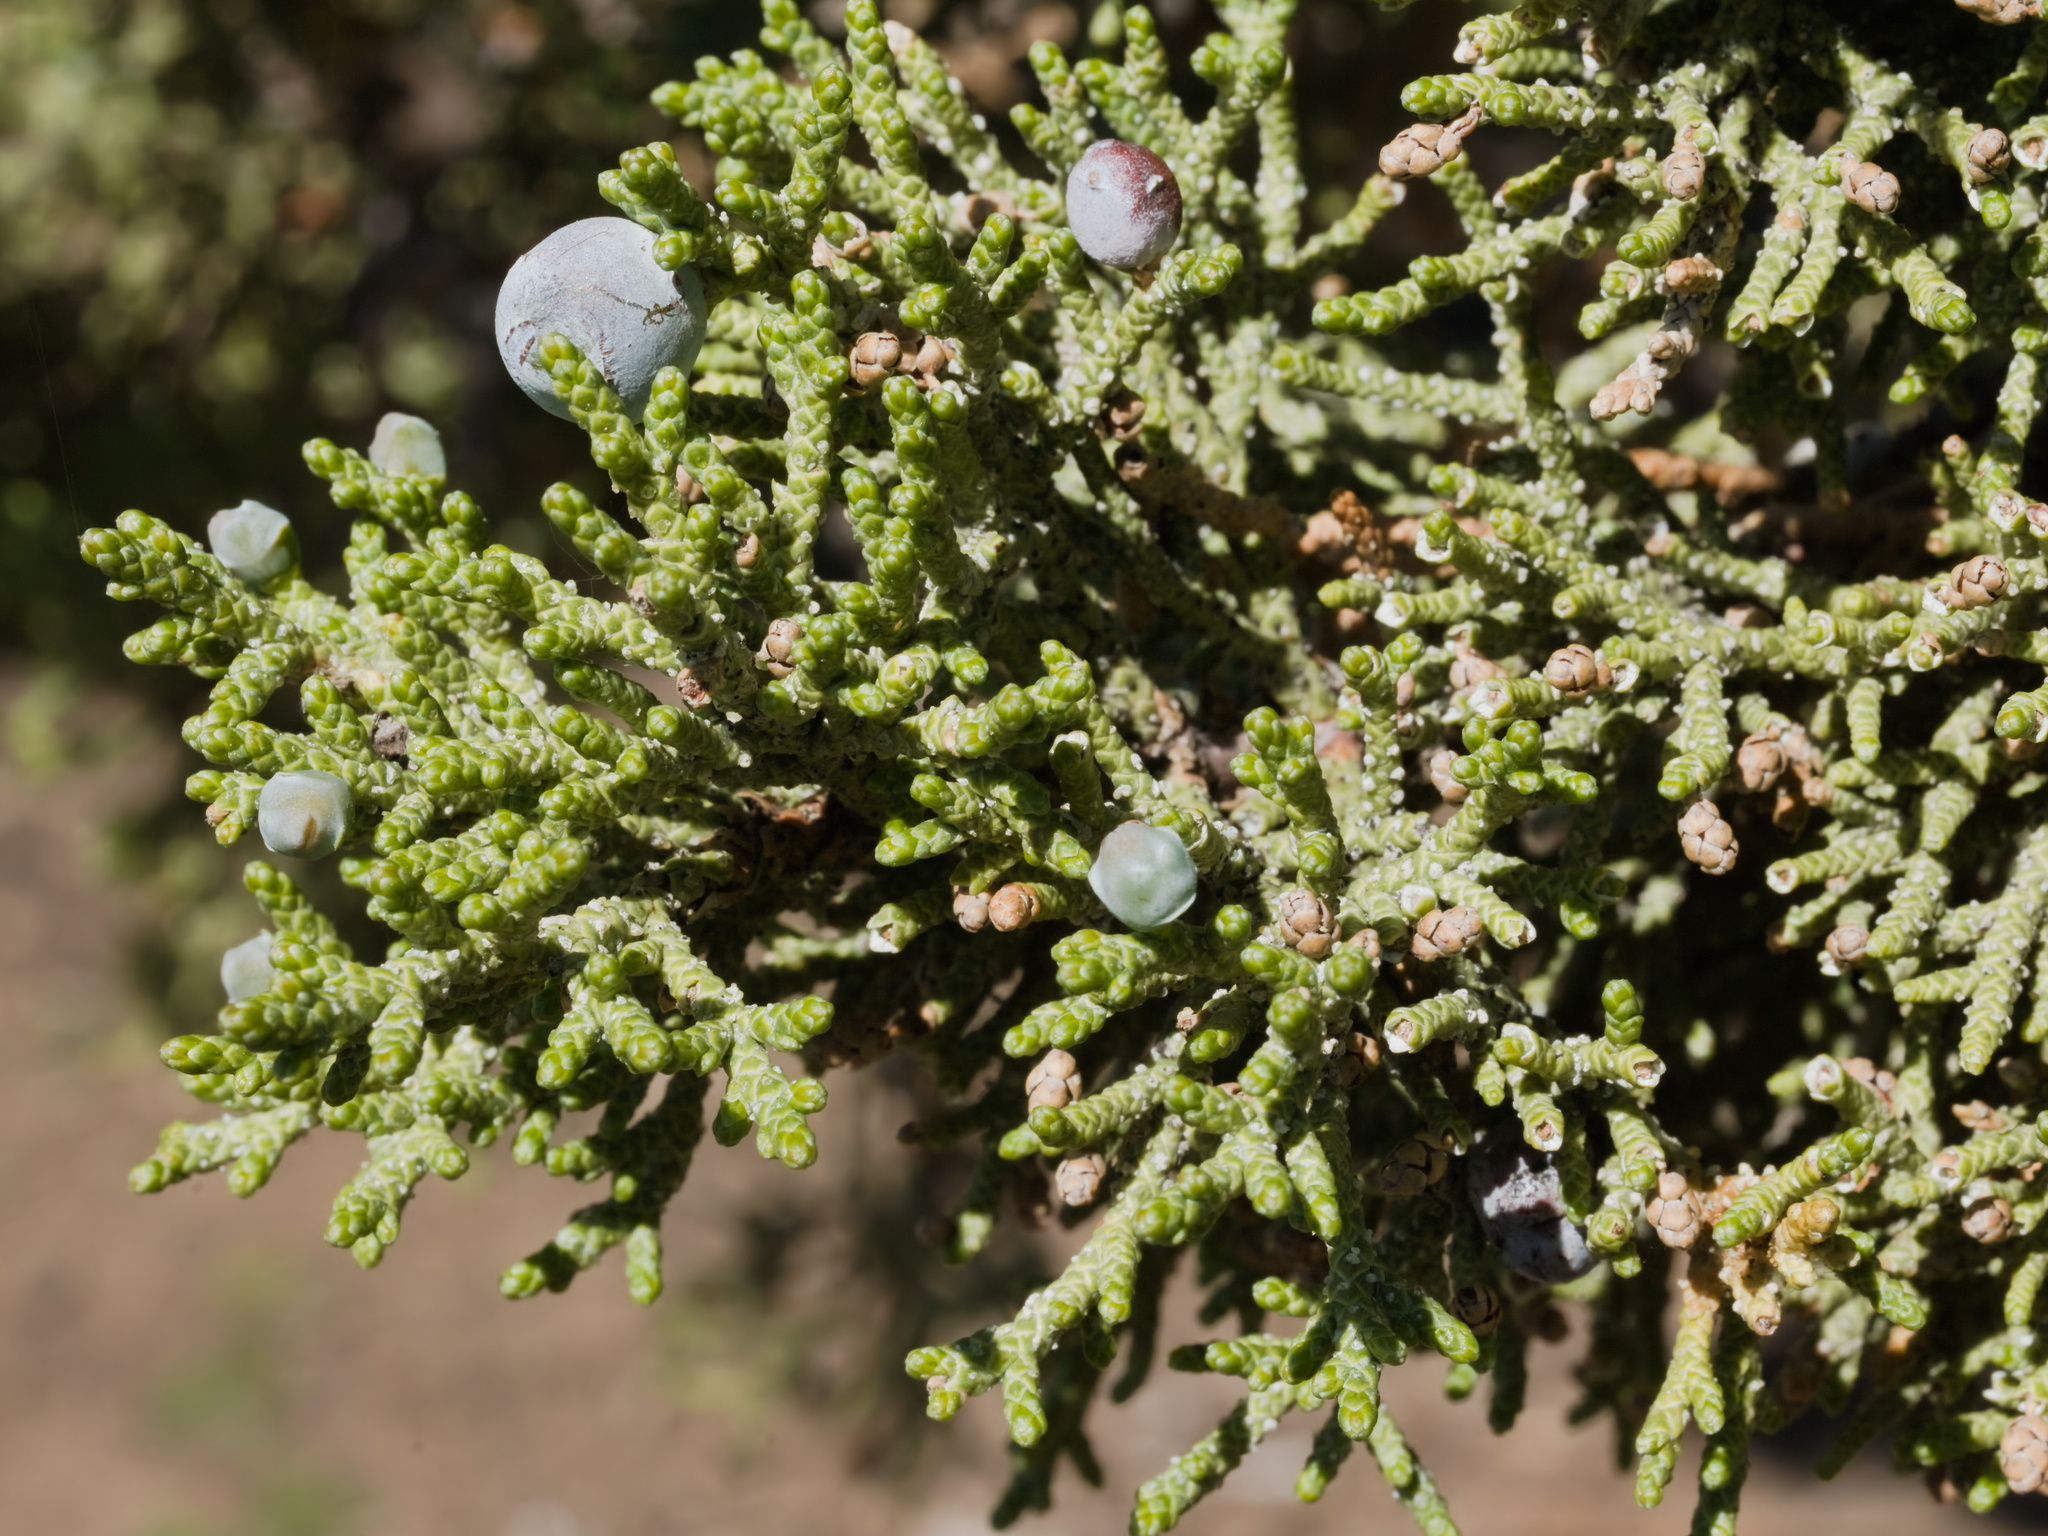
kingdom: Plantae
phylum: Tracheophyta
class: Pinopsida
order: Pinales
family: Cupressaceae
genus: Juniperus
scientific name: Juniperus occidentalis
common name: Western juniper
